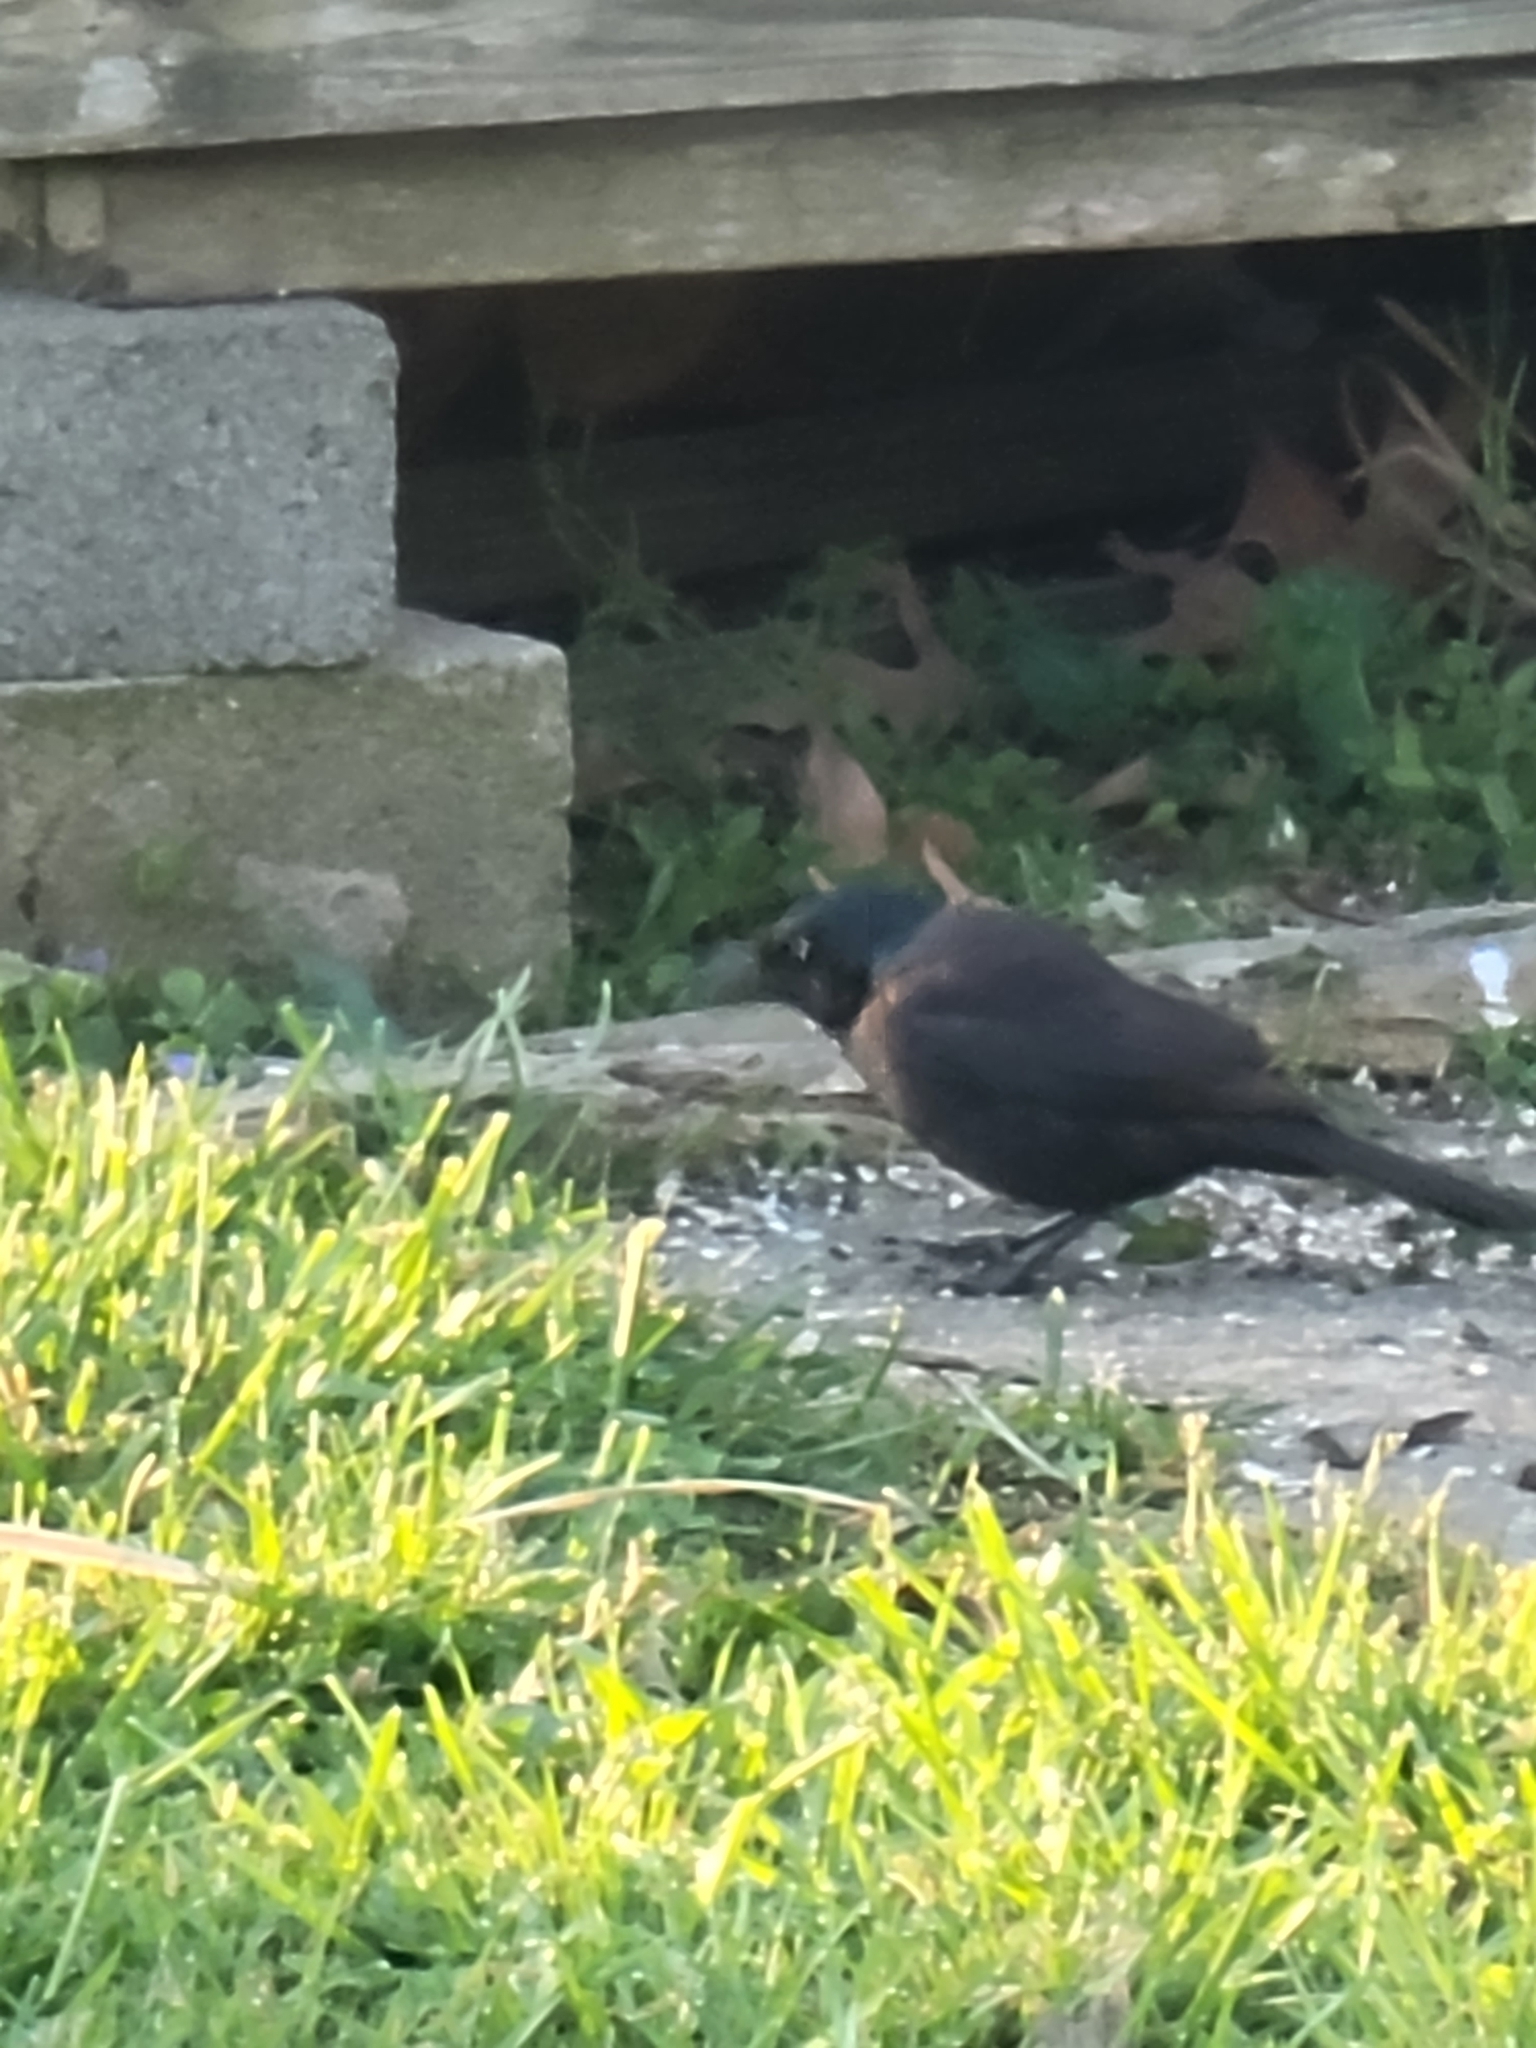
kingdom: Animalia
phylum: Chordata
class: Aves
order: Passeriformes
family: Icteridae
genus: Quiscalus
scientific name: Quiscalus quiscula
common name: Common grackle
